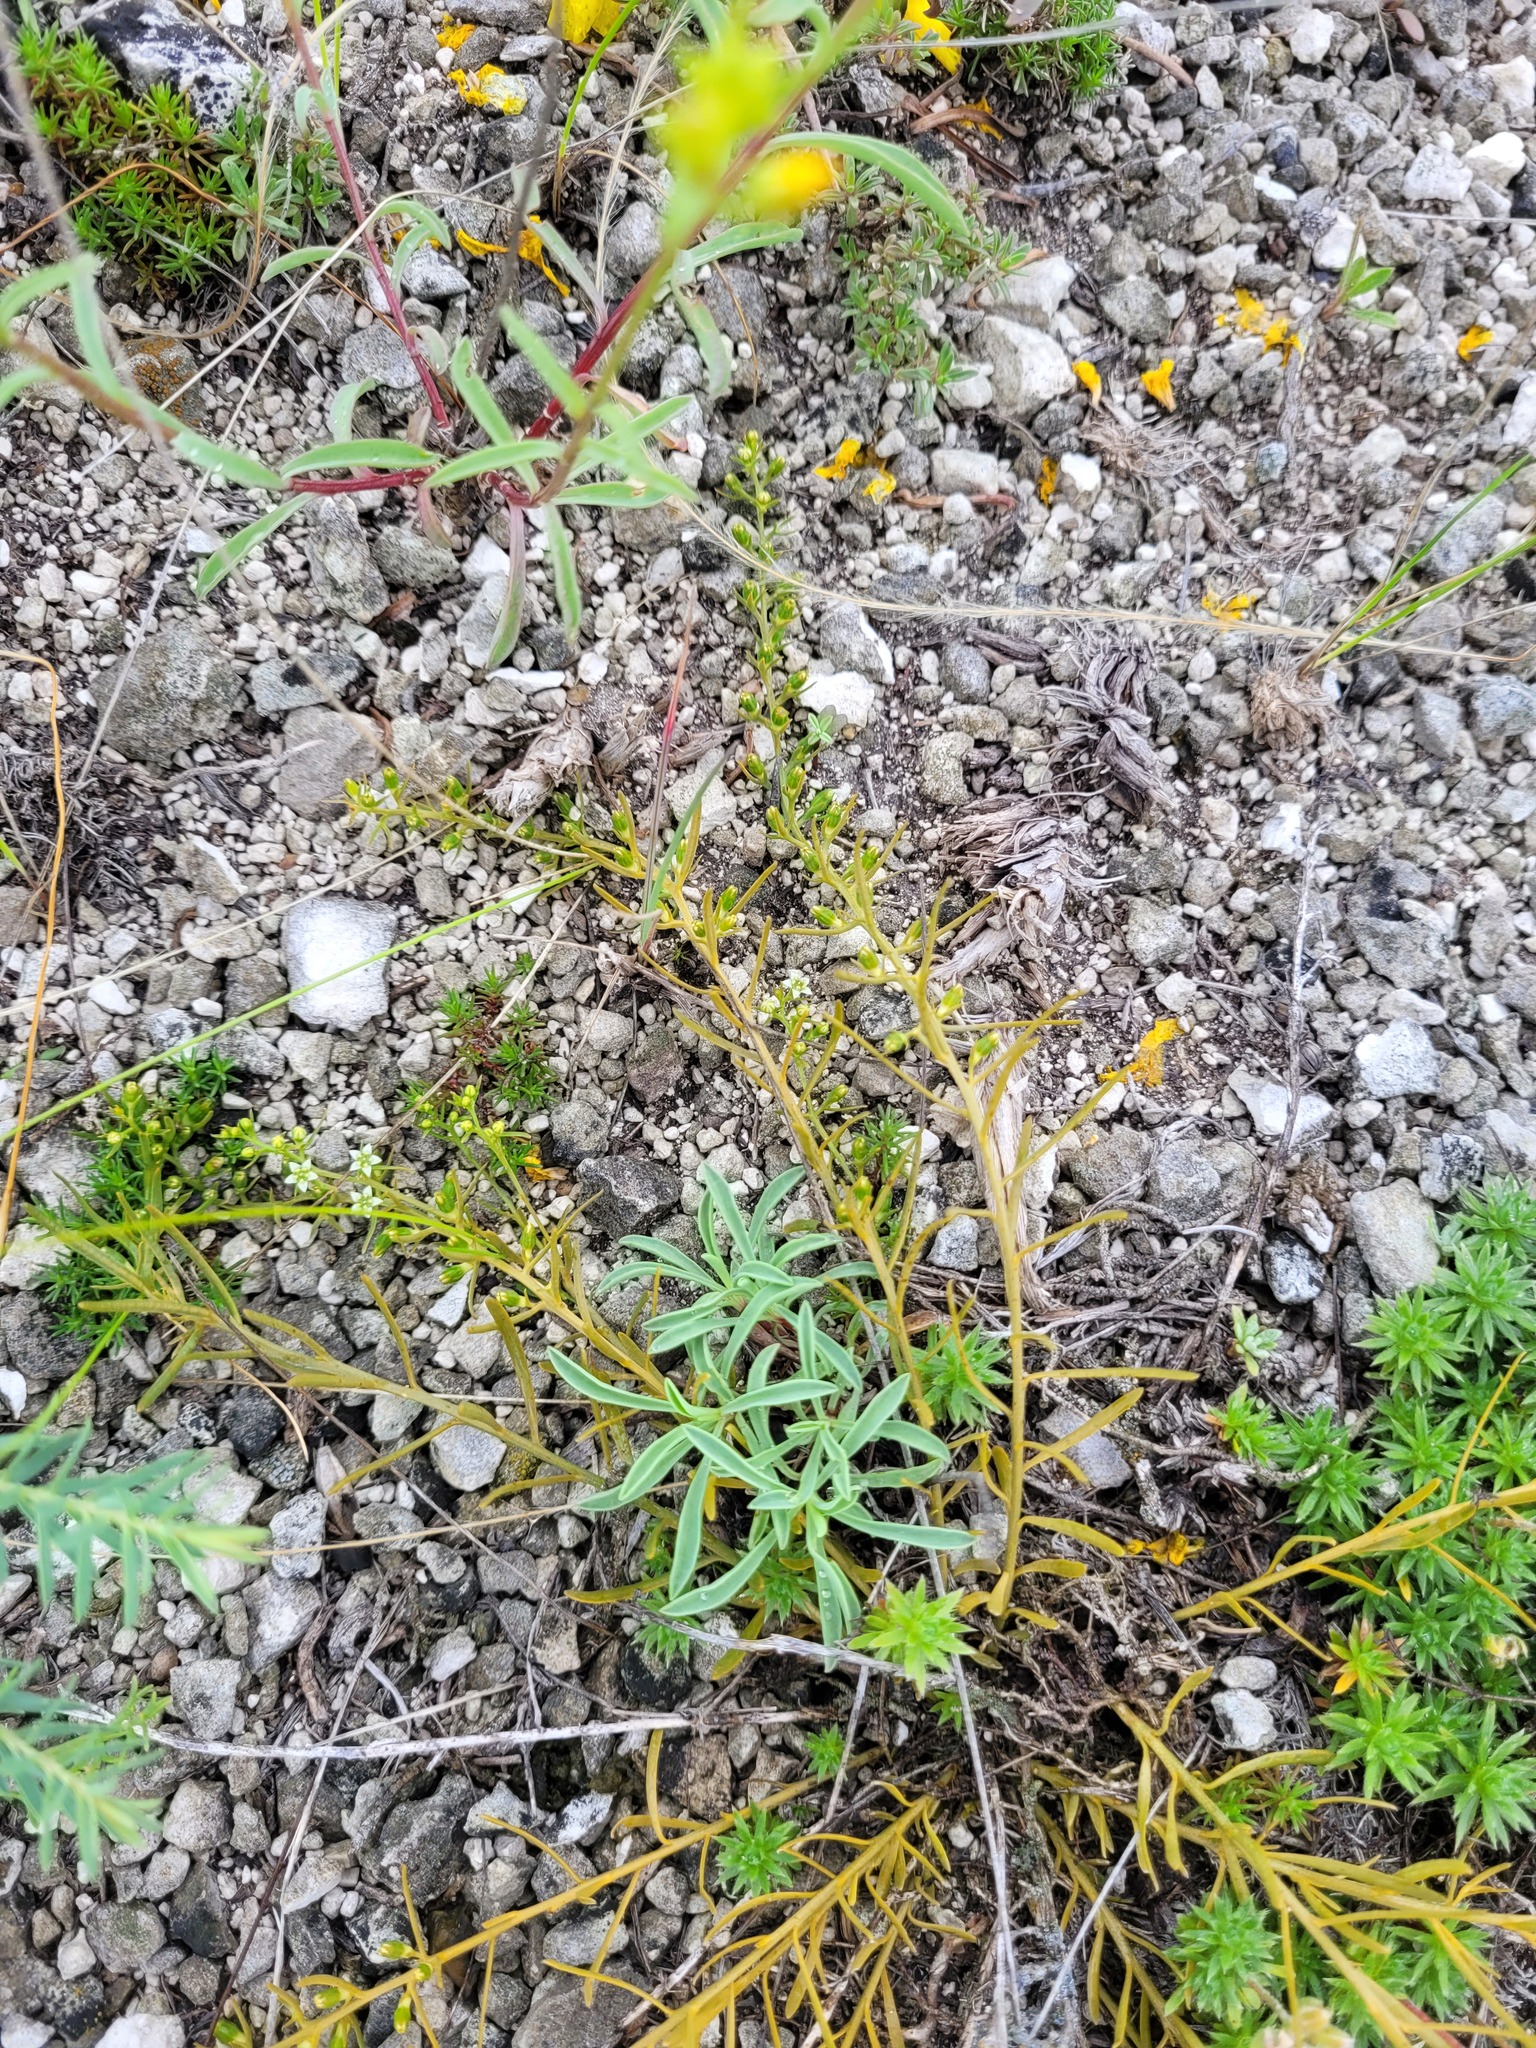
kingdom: Plantae
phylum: Tracheophyta
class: Magnoliopsida
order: Santalales
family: Thesiaceae
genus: Thesium
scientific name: Thesium ramosum
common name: Field thesium
